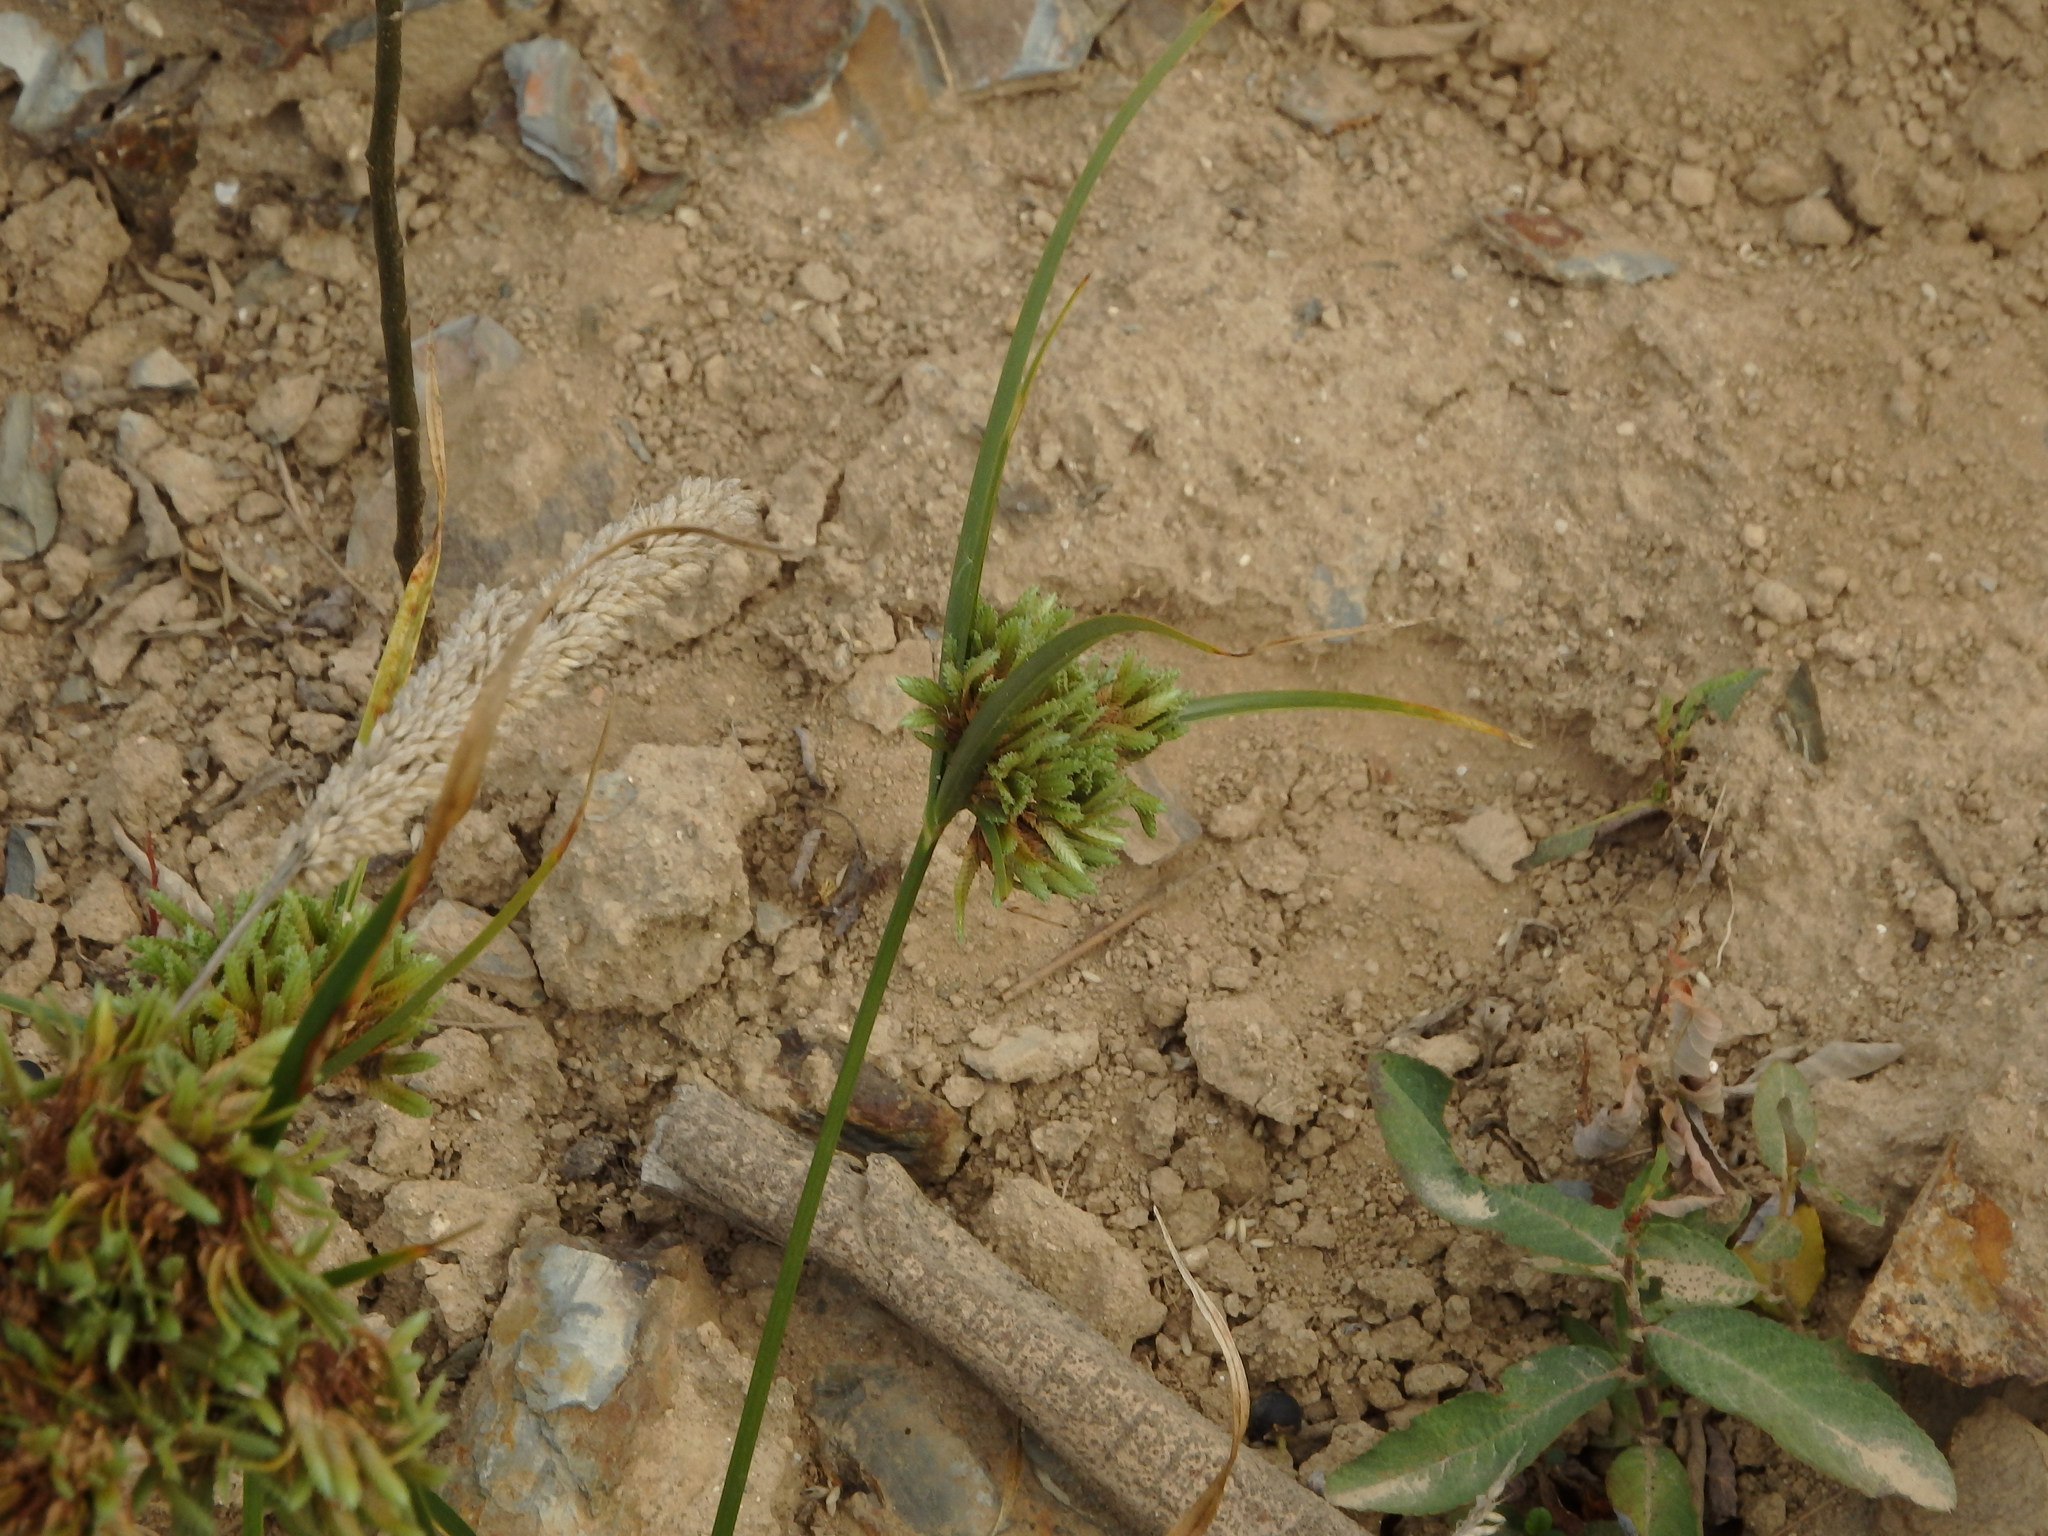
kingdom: Plantae
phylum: Tracheophyta
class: Liliopsida
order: Poales
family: Cyperaceae
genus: Cyperus
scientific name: Cyperus eragrostis
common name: Tall flatsedge
